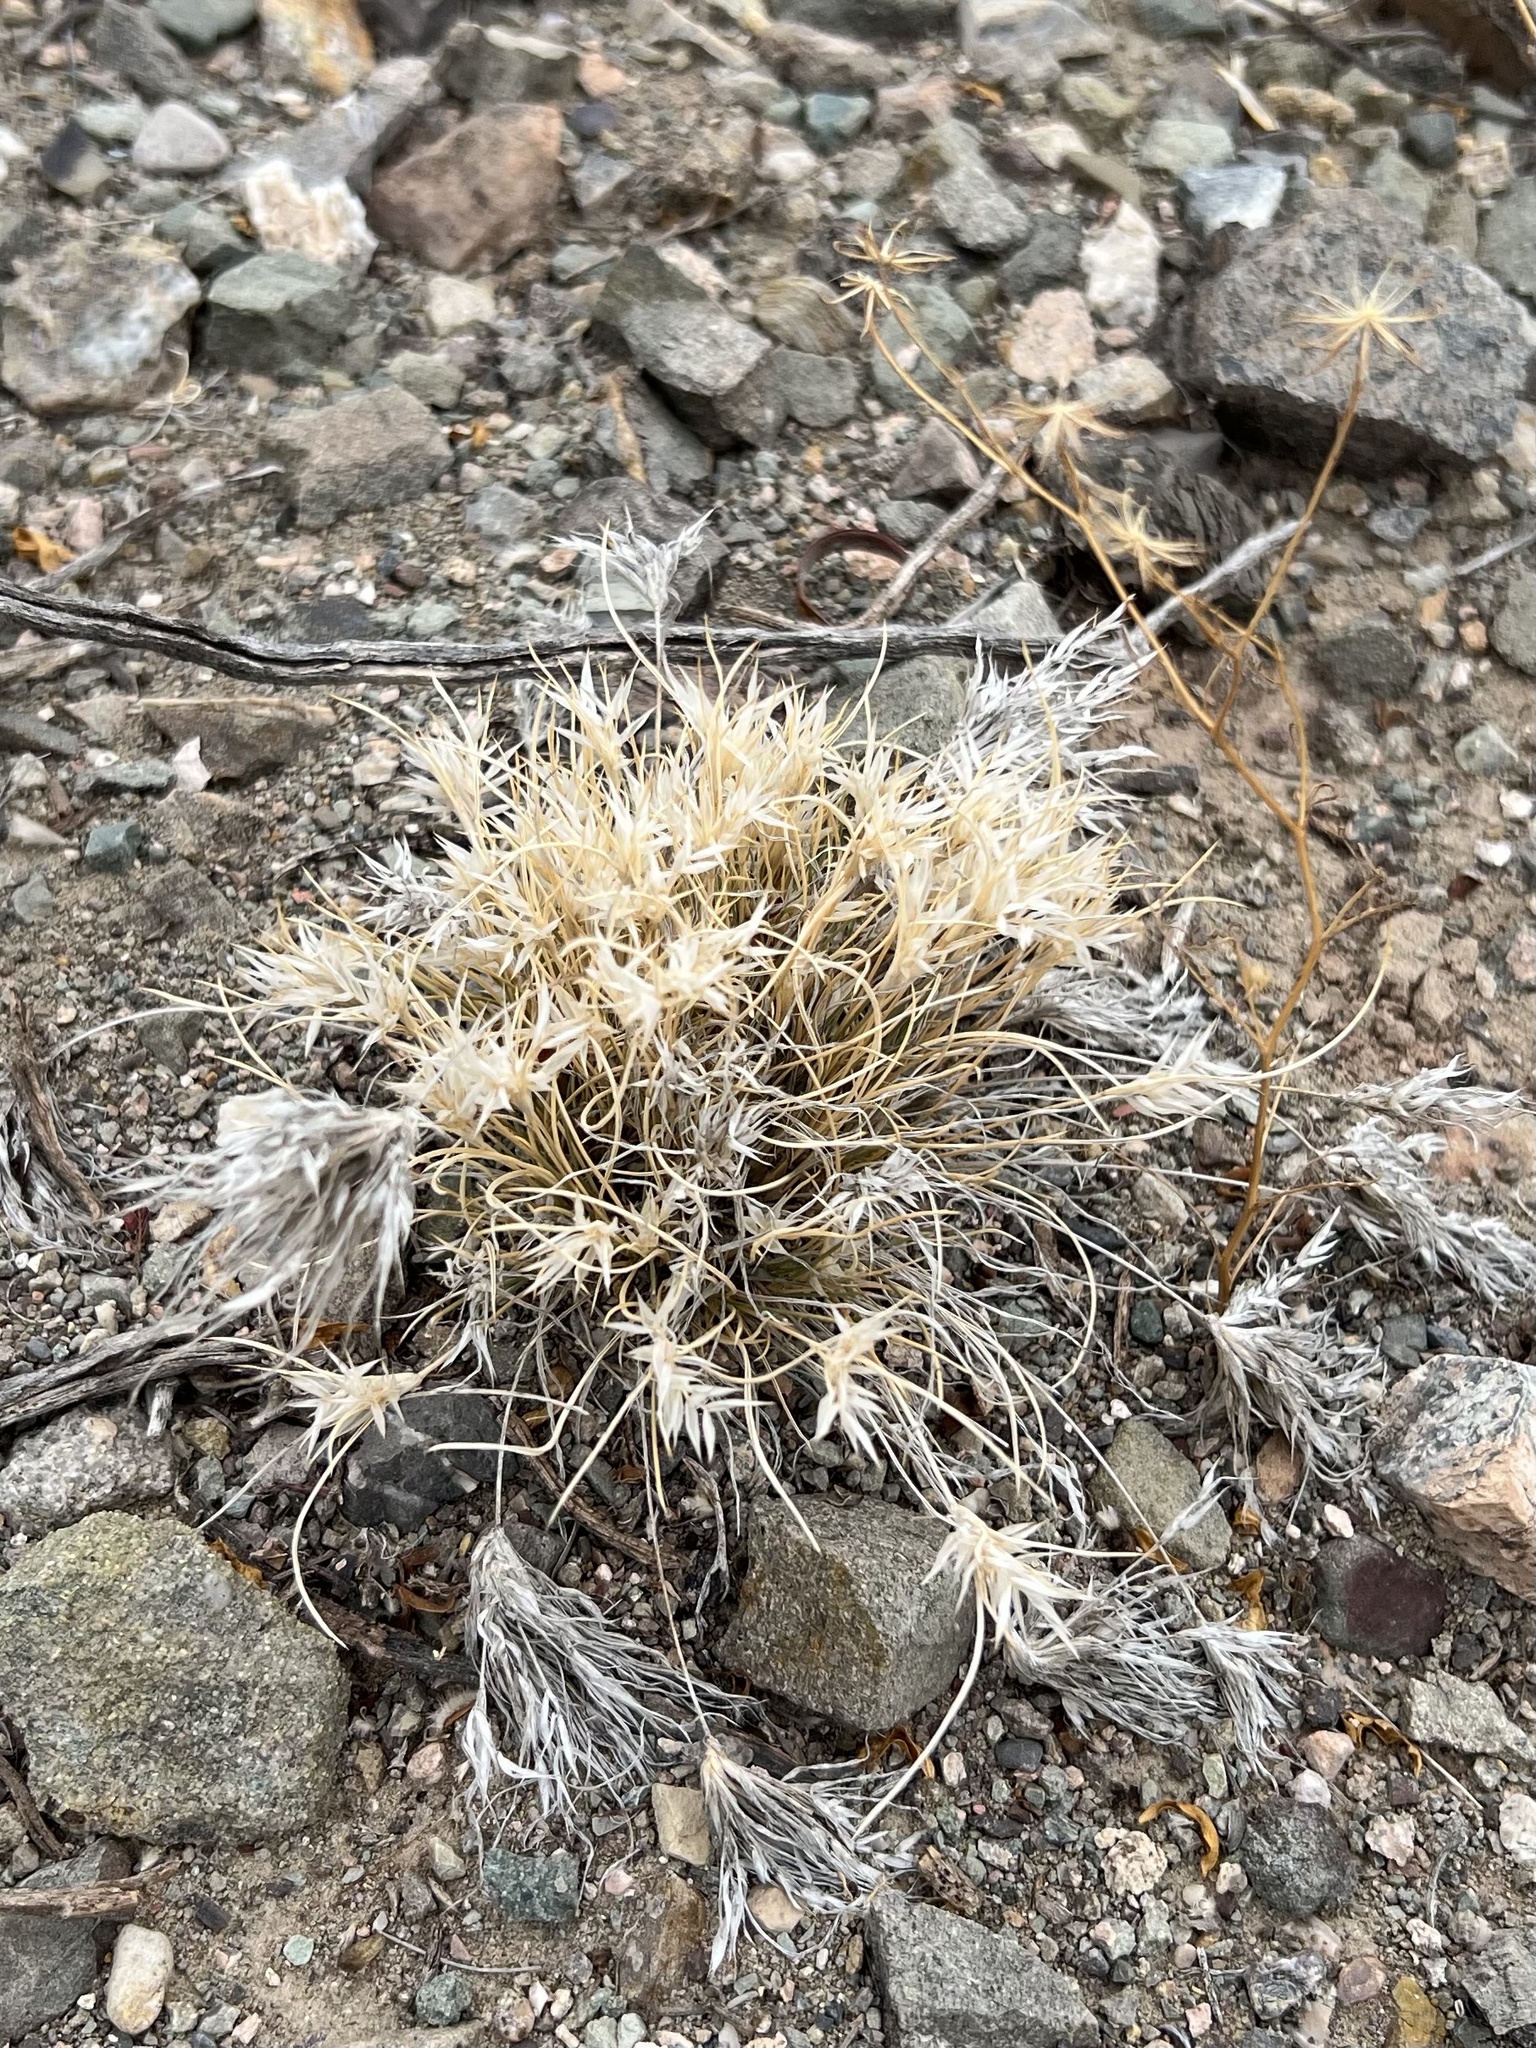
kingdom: Plantae
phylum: Tracheophyta
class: Liliopsida
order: Poales
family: Poaceae
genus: Dasyochloa
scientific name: Dasyochloa pulchella
